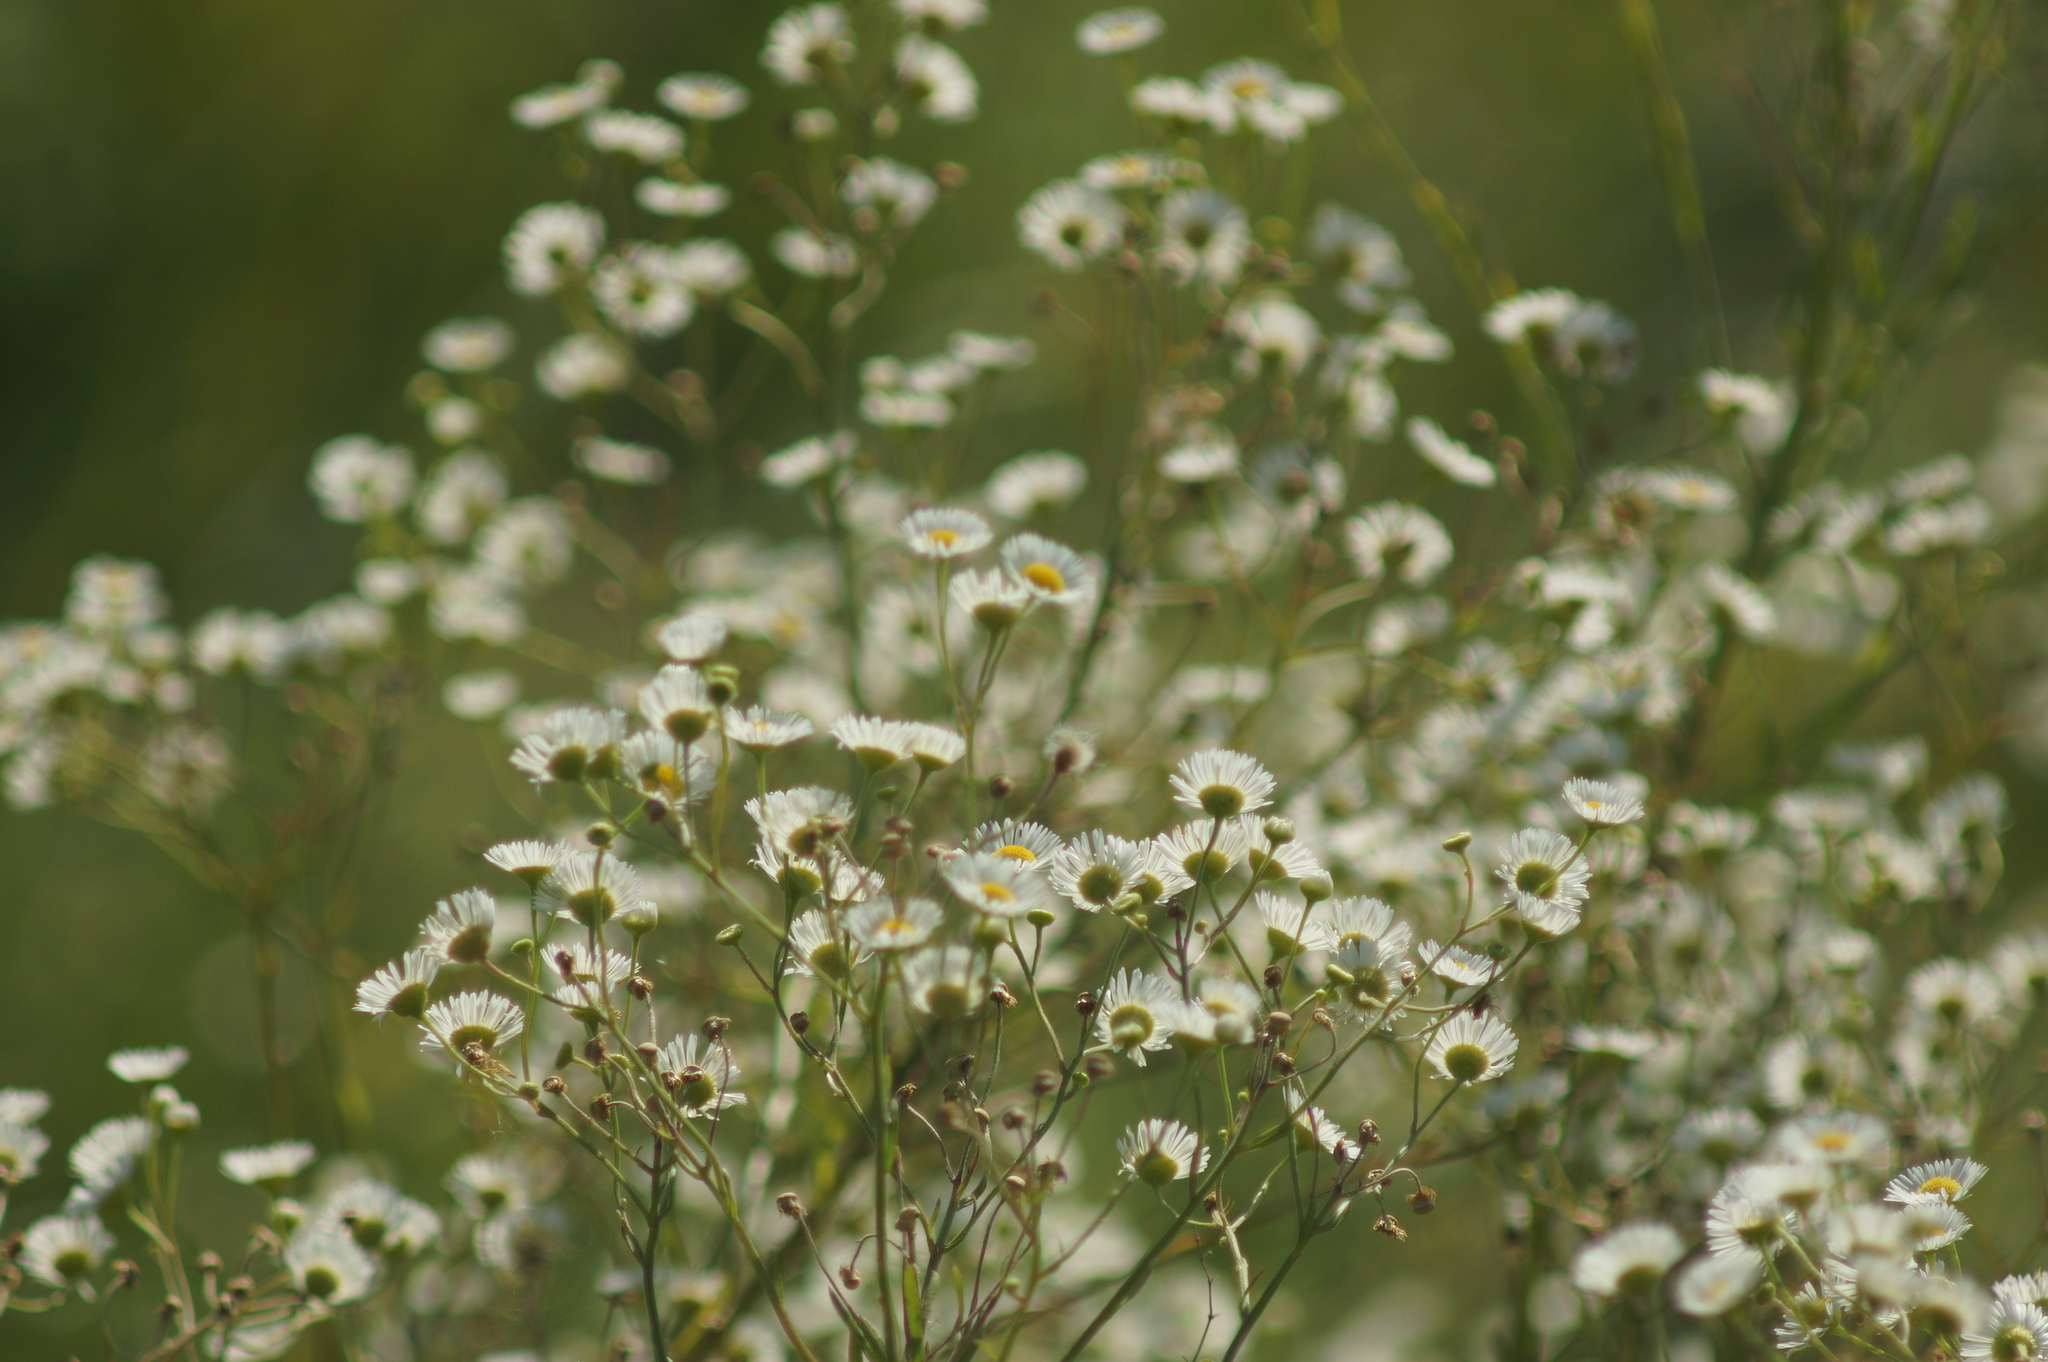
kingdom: Plantae
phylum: Tracheophyta
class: Magnoliopsida
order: Asterales
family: Asteraceae
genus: Erigeron
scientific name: Erigeron annuus
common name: Tall fleabane
